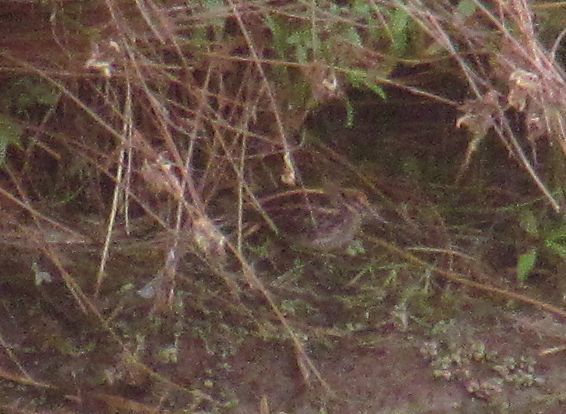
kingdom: Animalia
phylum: Chordata
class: Aves
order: Charadriiformes
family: Scolopacidae
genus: Lymnocryptes
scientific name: Lymnocryptes minimus
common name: Jack snipe
